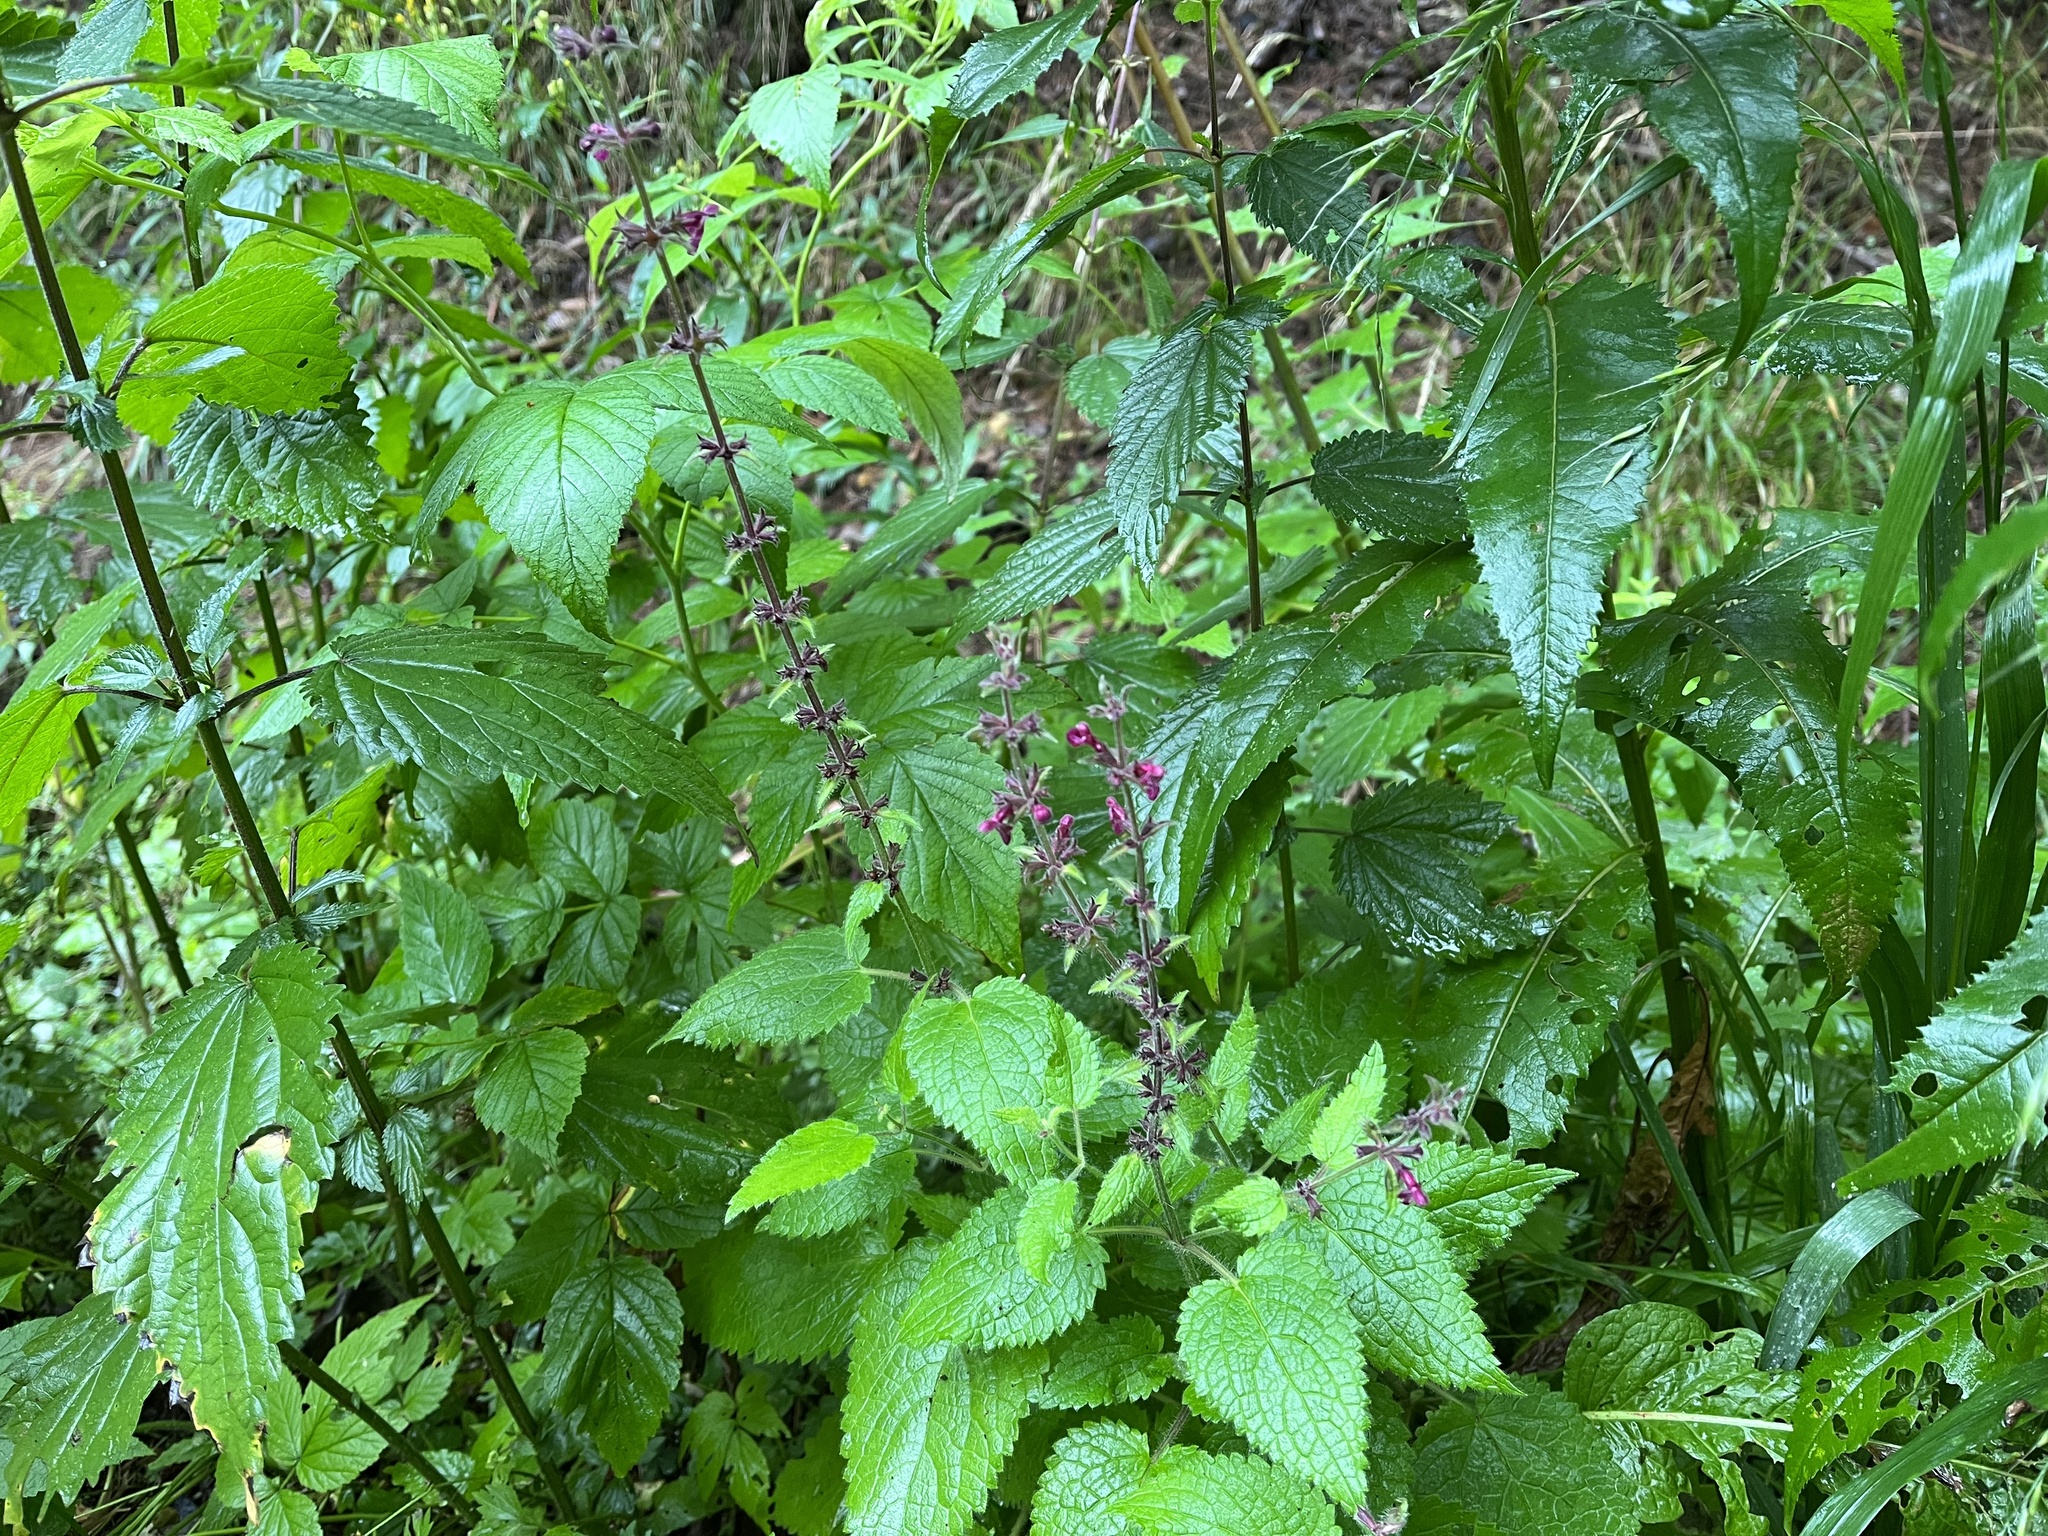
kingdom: Plantae
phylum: Tracheophyta
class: Magnoliopsida
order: Lamiales
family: Lamiaceae
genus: Stachys
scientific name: Stachys sylvatica
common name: Hedge woundwort
